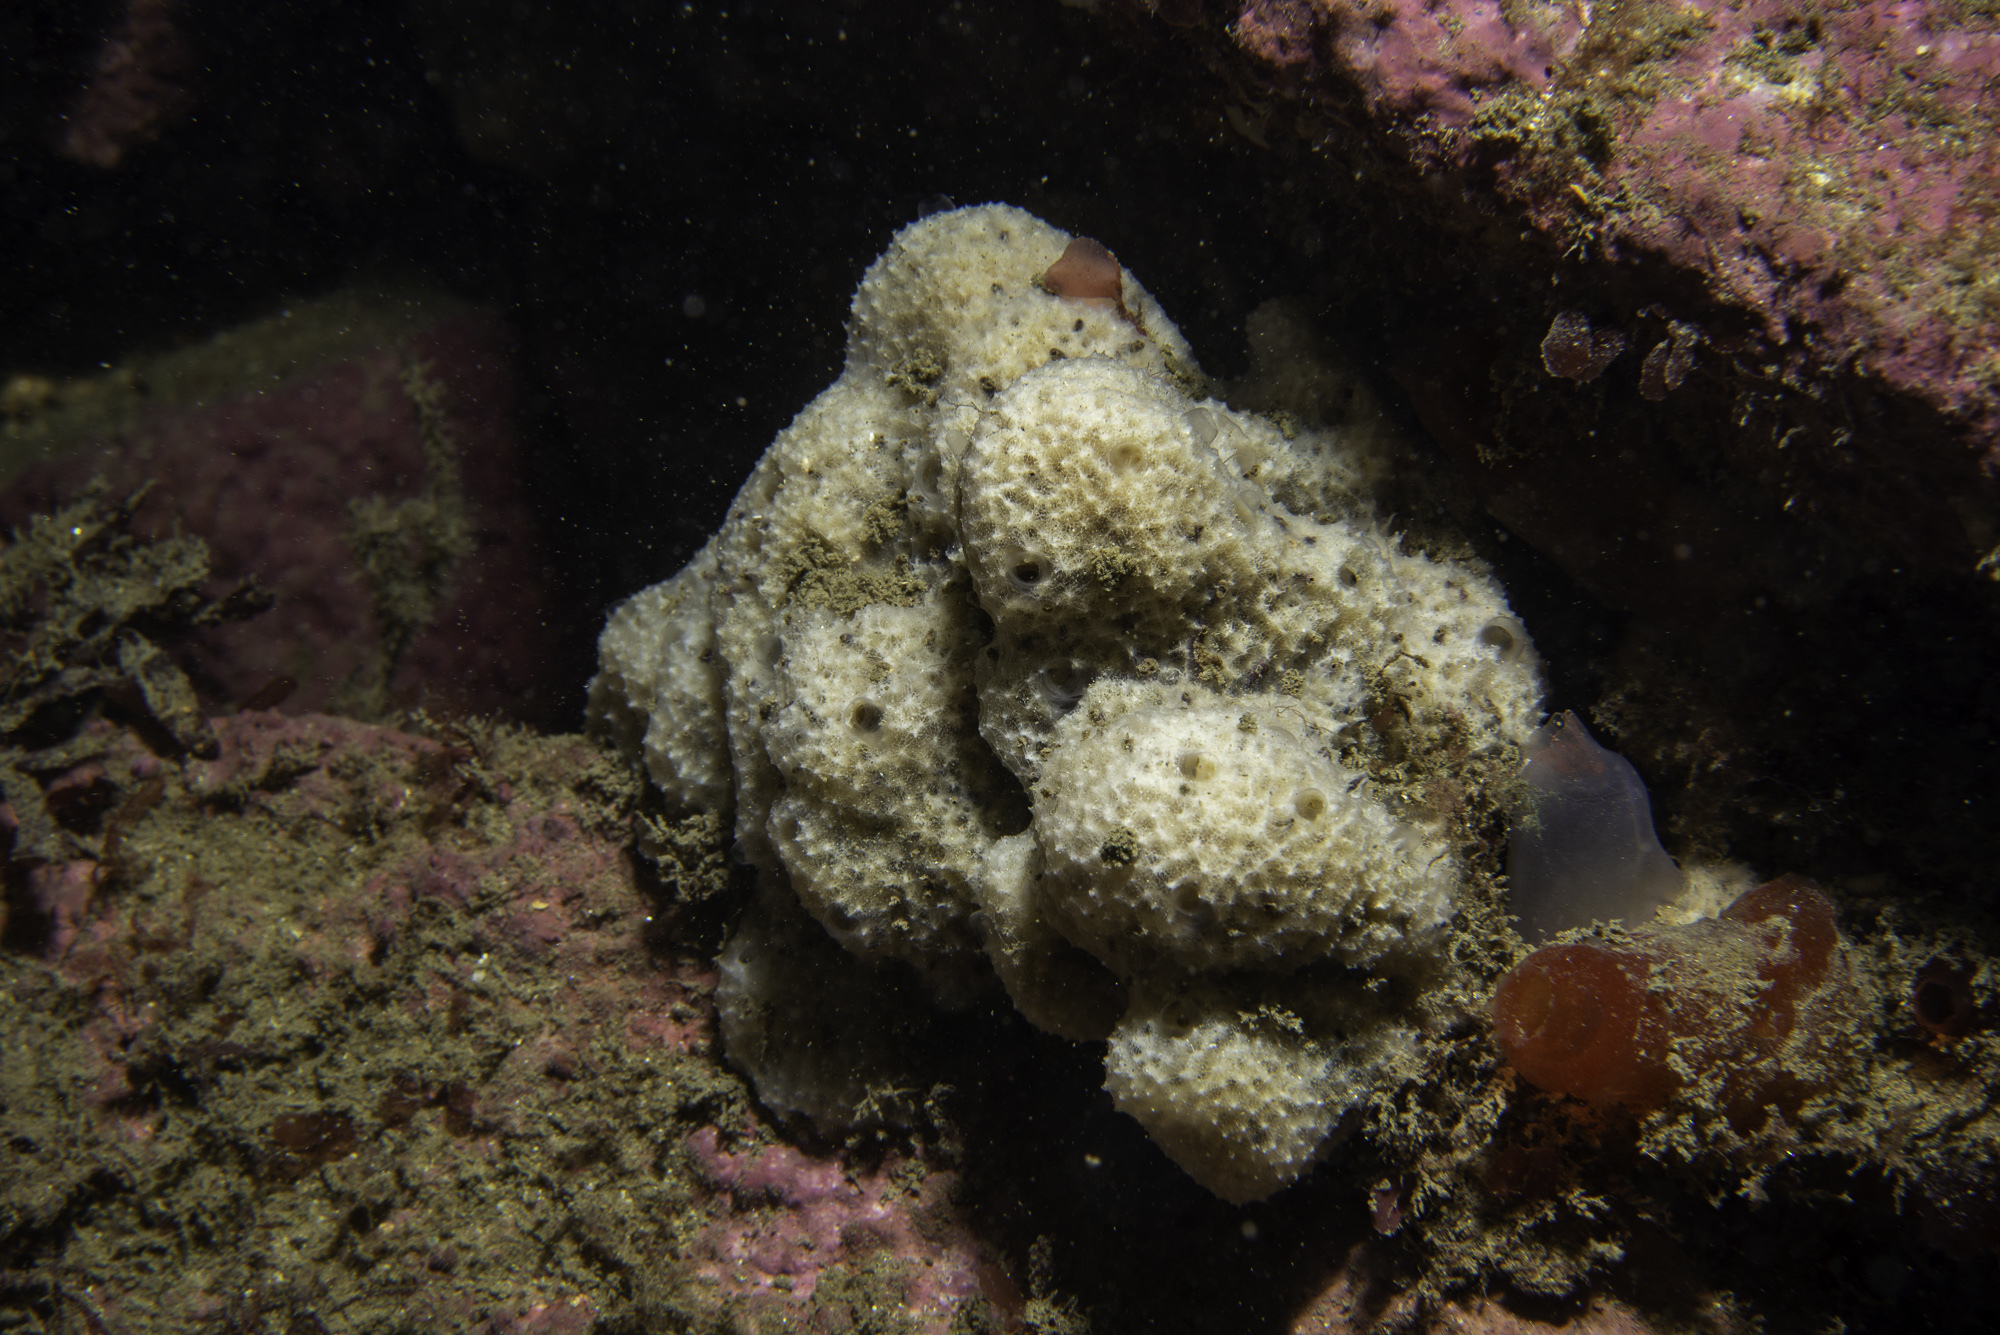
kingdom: Animalia
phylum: Porifera
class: Demospongiae
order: Dictyoceratida
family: Dysideidae
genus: Dysidea
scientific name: Dysidea fragilis
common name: Goosebump sponge
